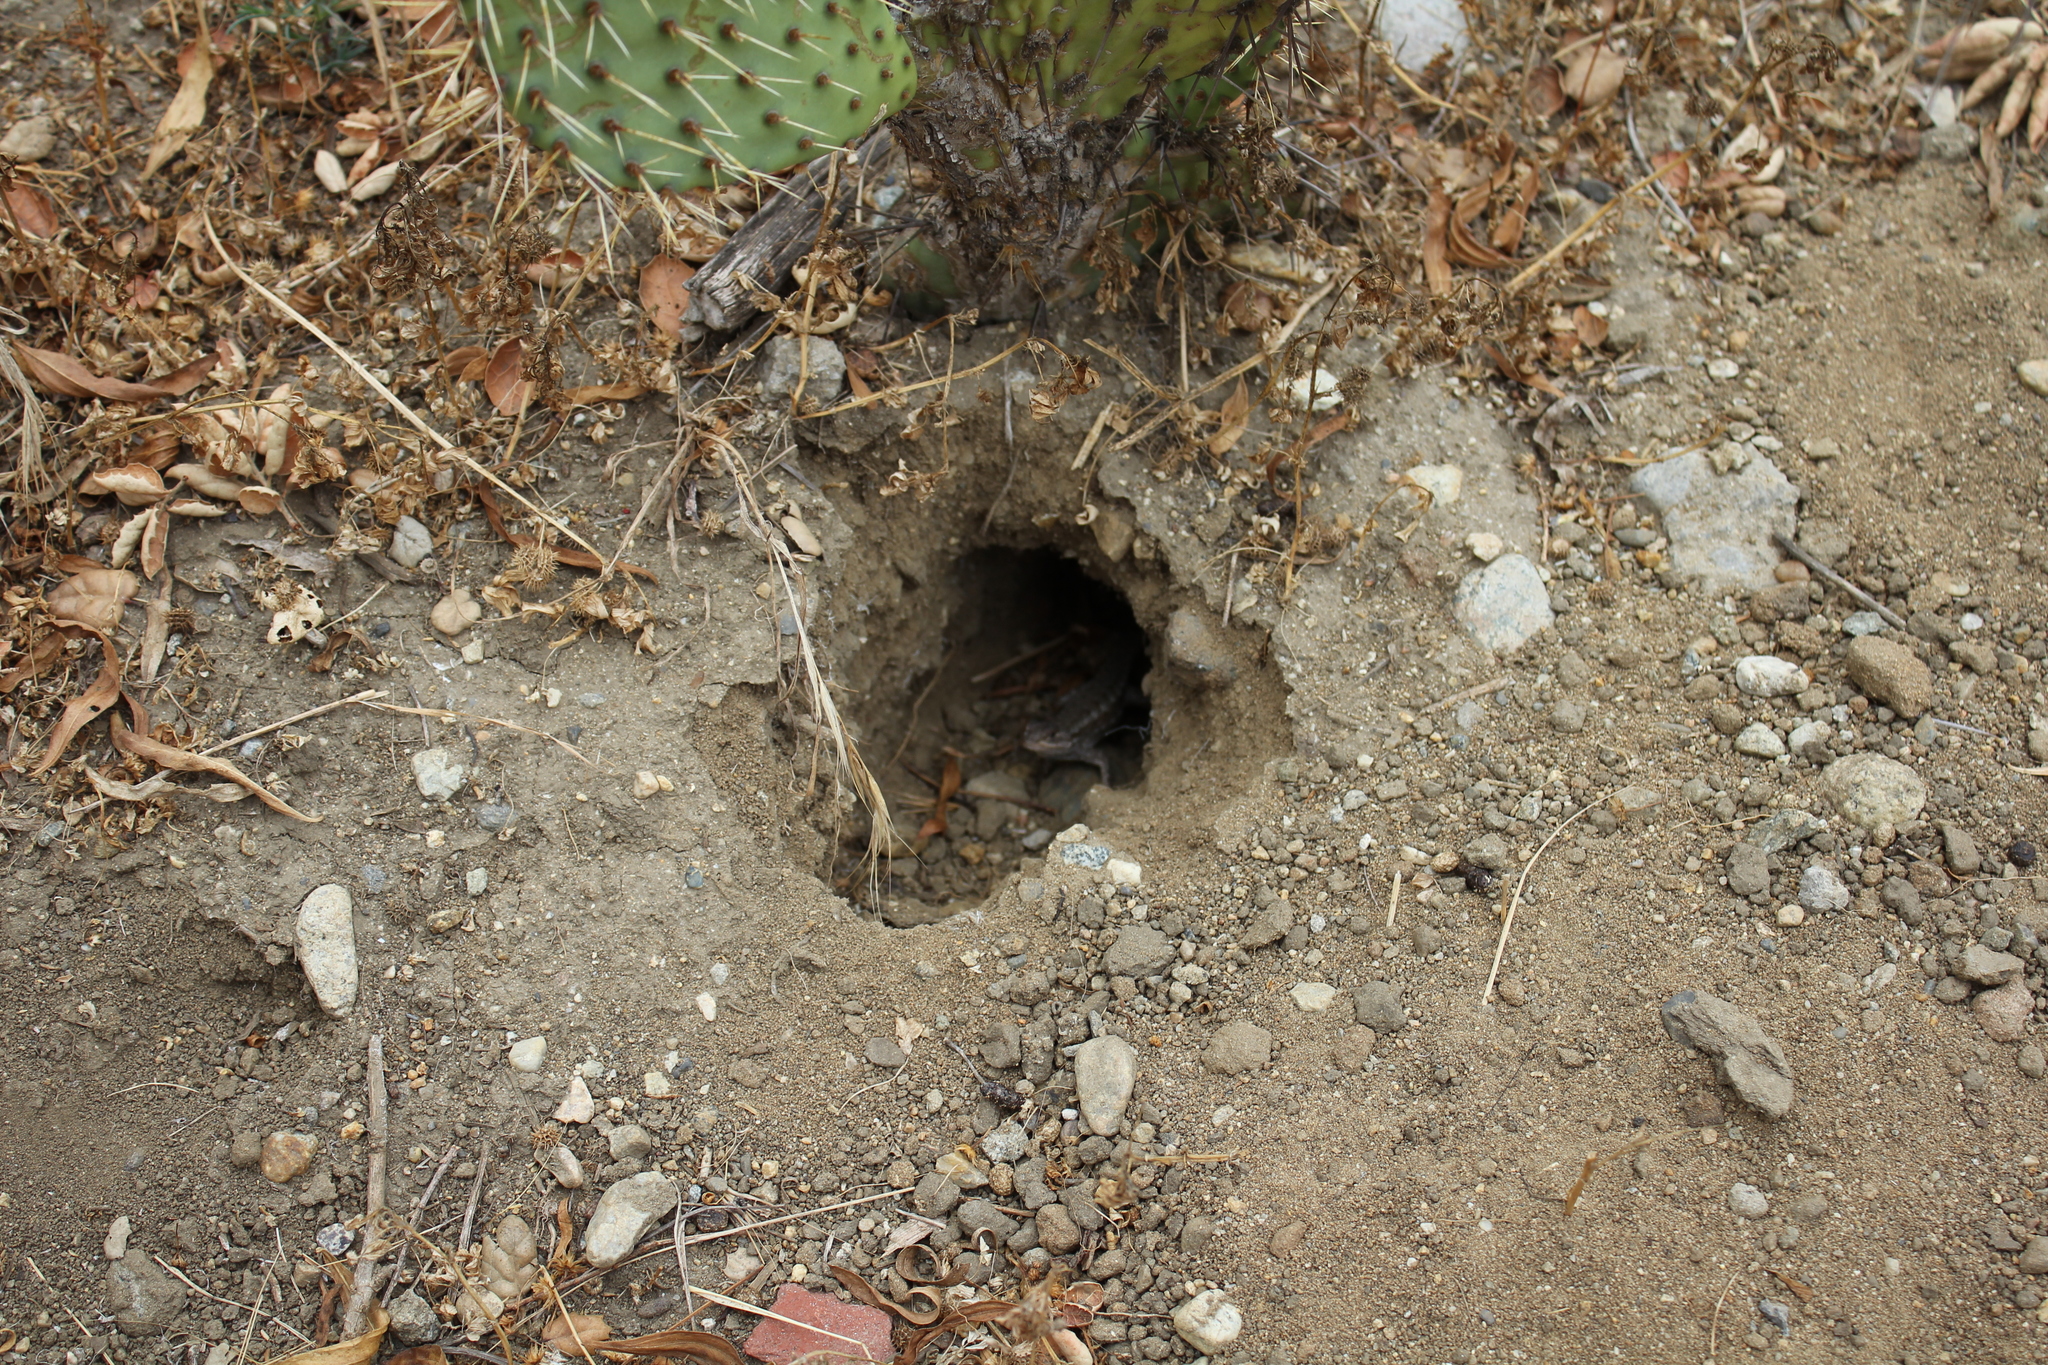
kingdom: Animalia
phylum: Chordata
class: Squamata
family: Phrynosomatidae
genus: Sceloporus
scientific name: Sceloporus occidentalis
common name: Western fence lizard
